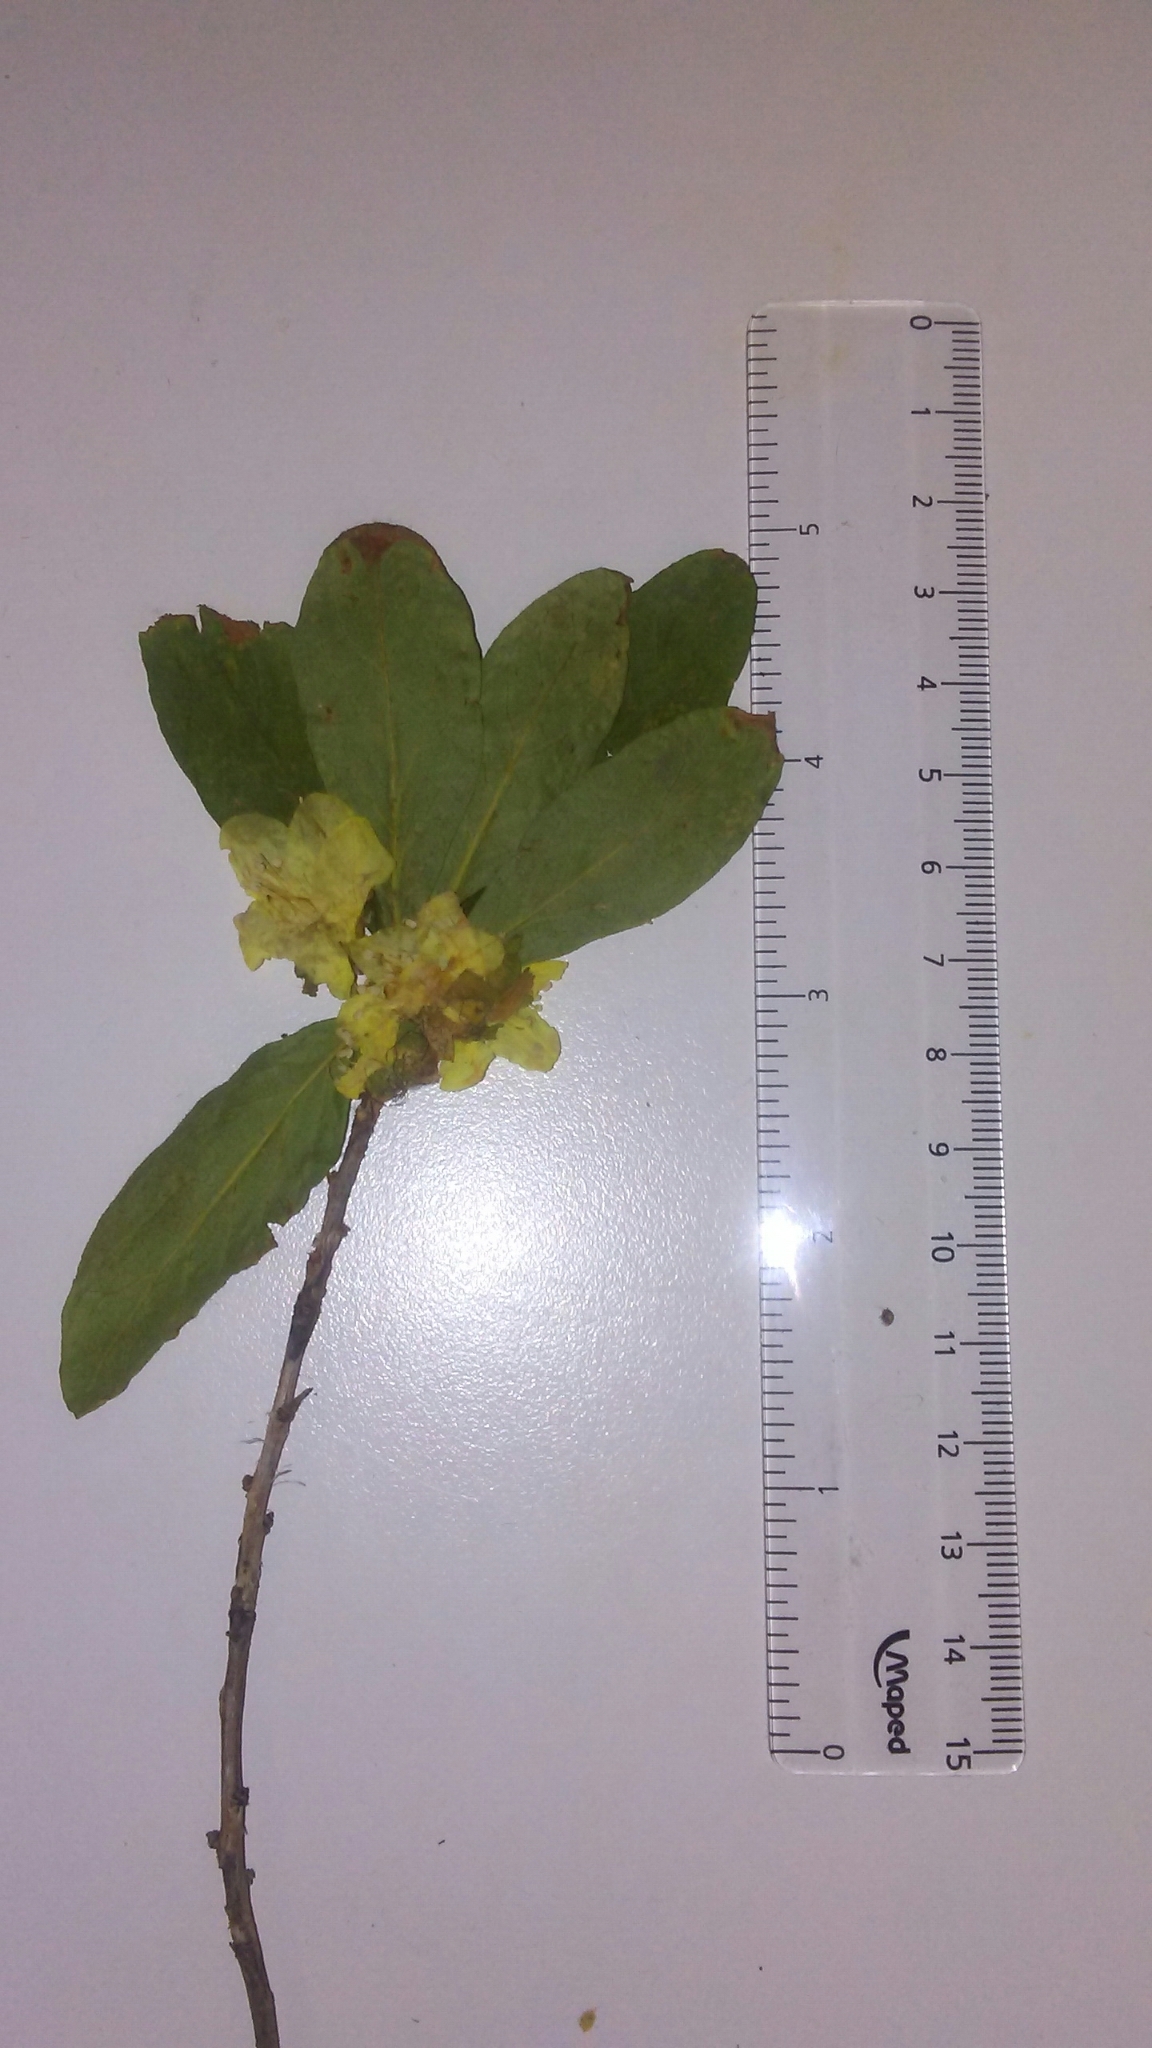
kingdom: Plantae
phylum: Tracheophyta
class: Magnoliopsida
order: Ericales
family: Ericaceae
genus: Rhododendron
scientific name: Rhododendron albiflorum
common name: White rhododendron
